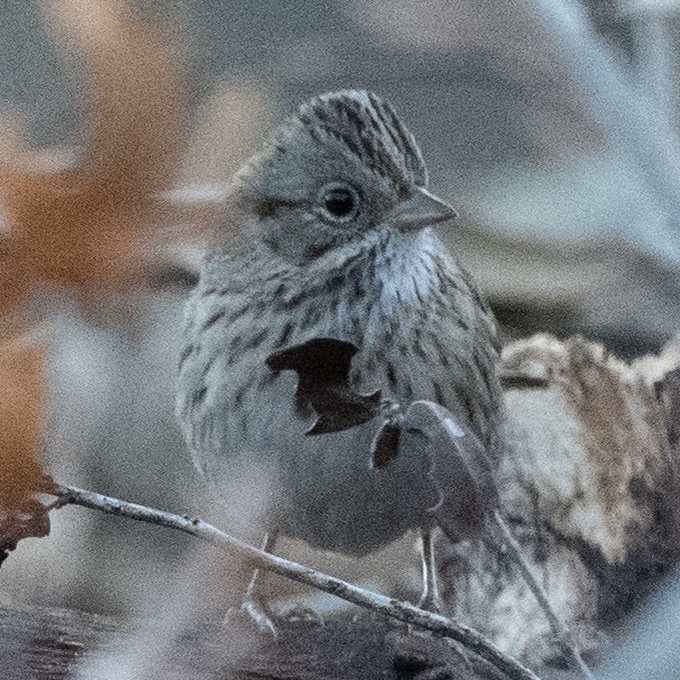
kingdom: Animalia
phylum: Chordata
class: Aves
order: Passeriformes
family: Passerellidae
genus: Melospiza
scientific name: Melospiza lincolnii
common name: Lincoln's sparrow
